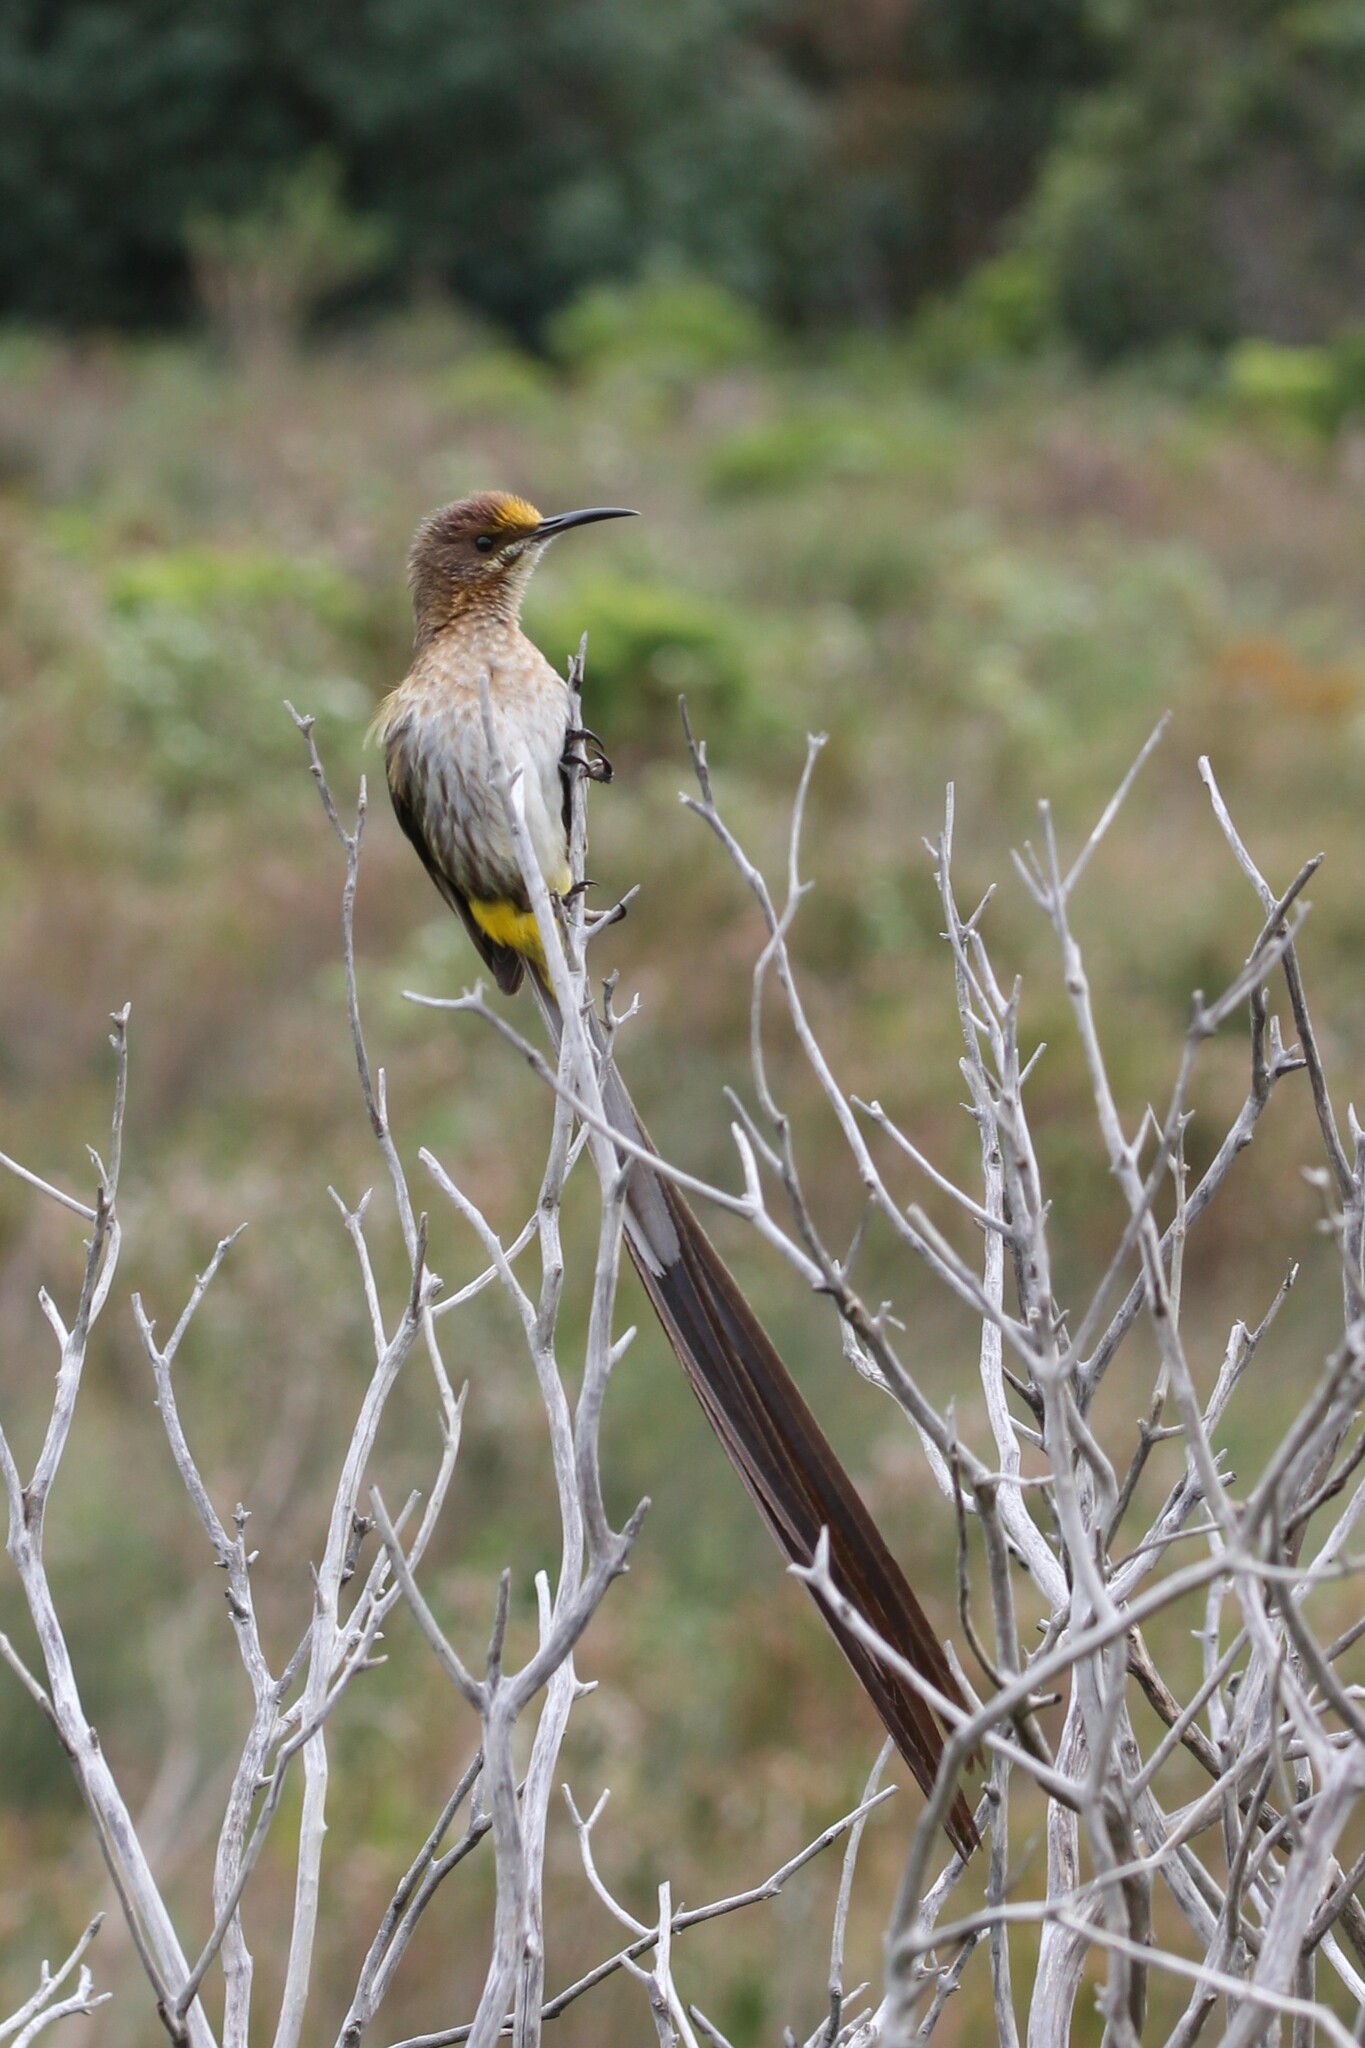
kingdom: Animalia
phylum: Chordata
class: Aves
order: Passeriformes
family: Promeropidae
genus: Promerops
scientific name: Promerops cafer
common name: Cape sugarbird
